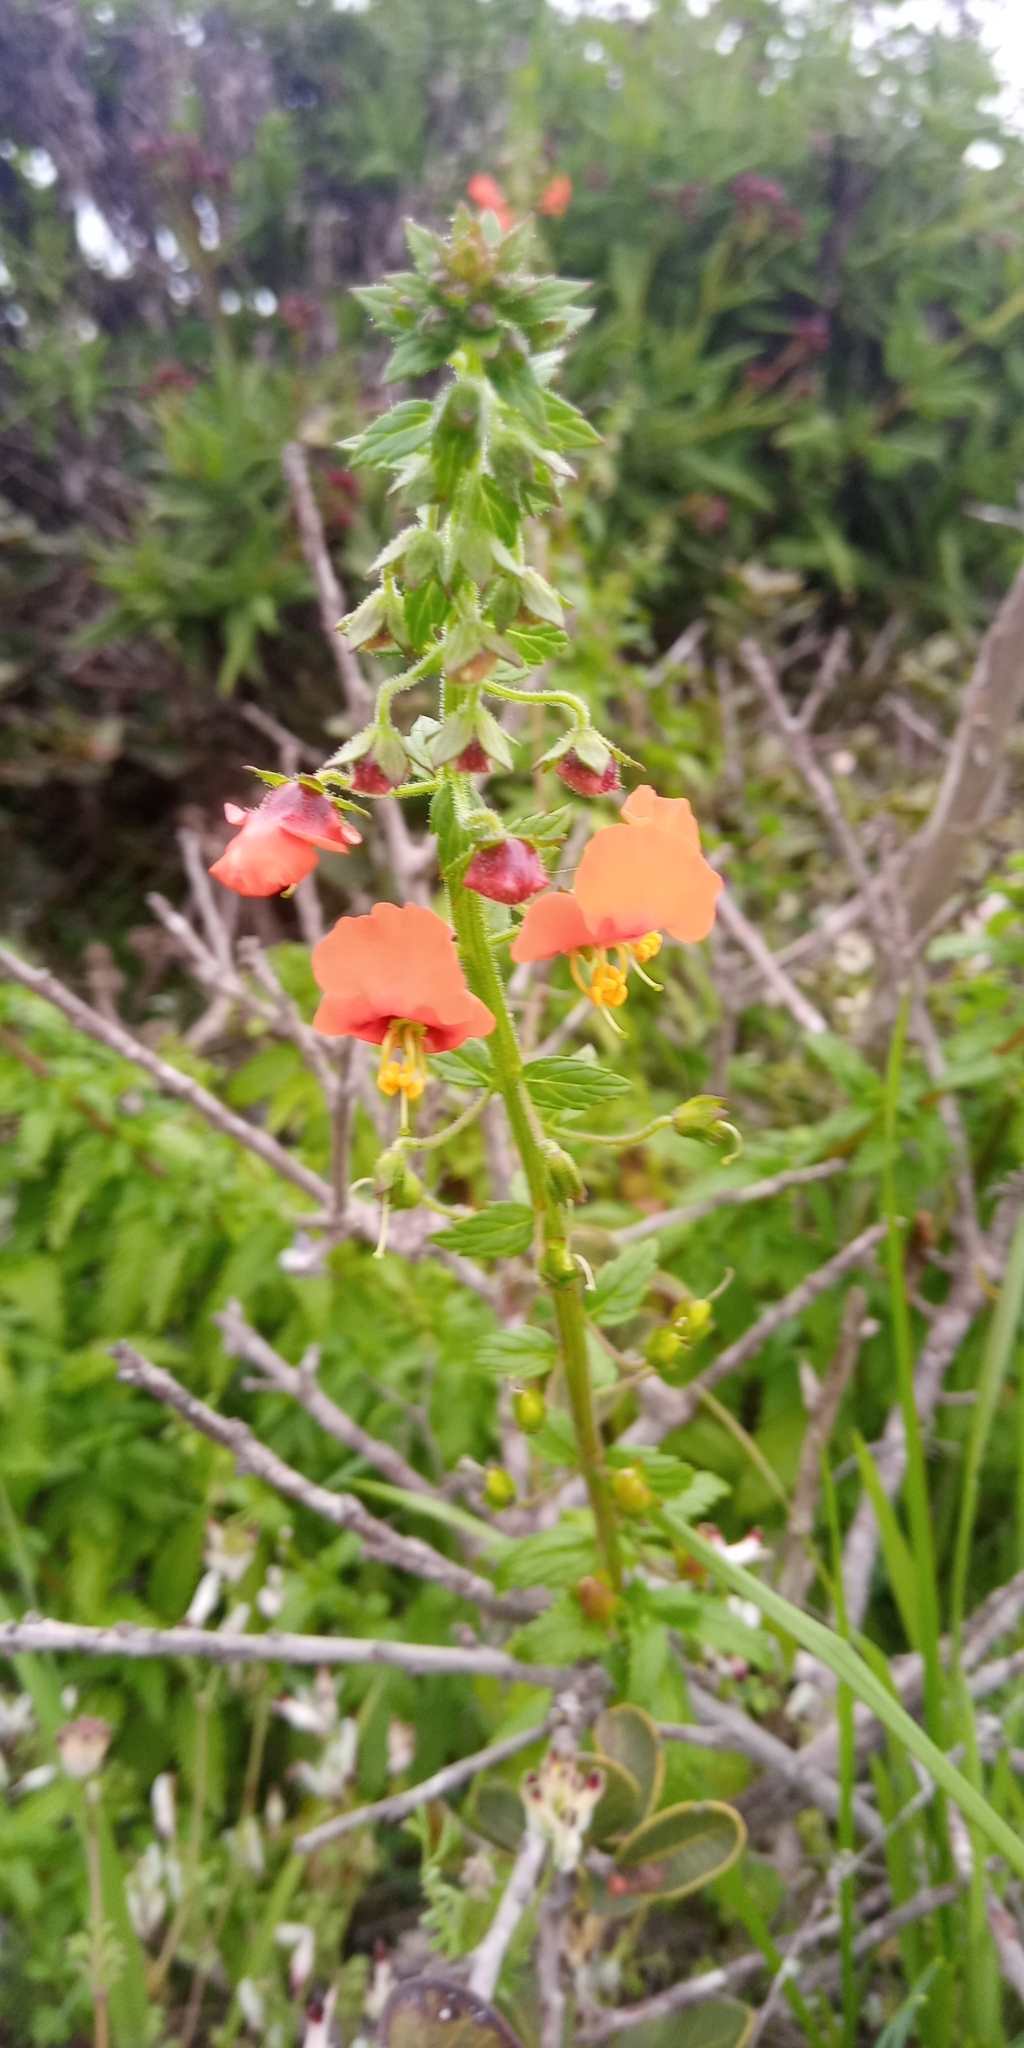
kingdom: Plantae
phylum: Tracheophyta
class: Magnoliopsida
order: Lamiales
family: Scrophulariaceae
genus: Alonsoa
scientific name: Alonsoa meridionalis
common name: Maskflower
